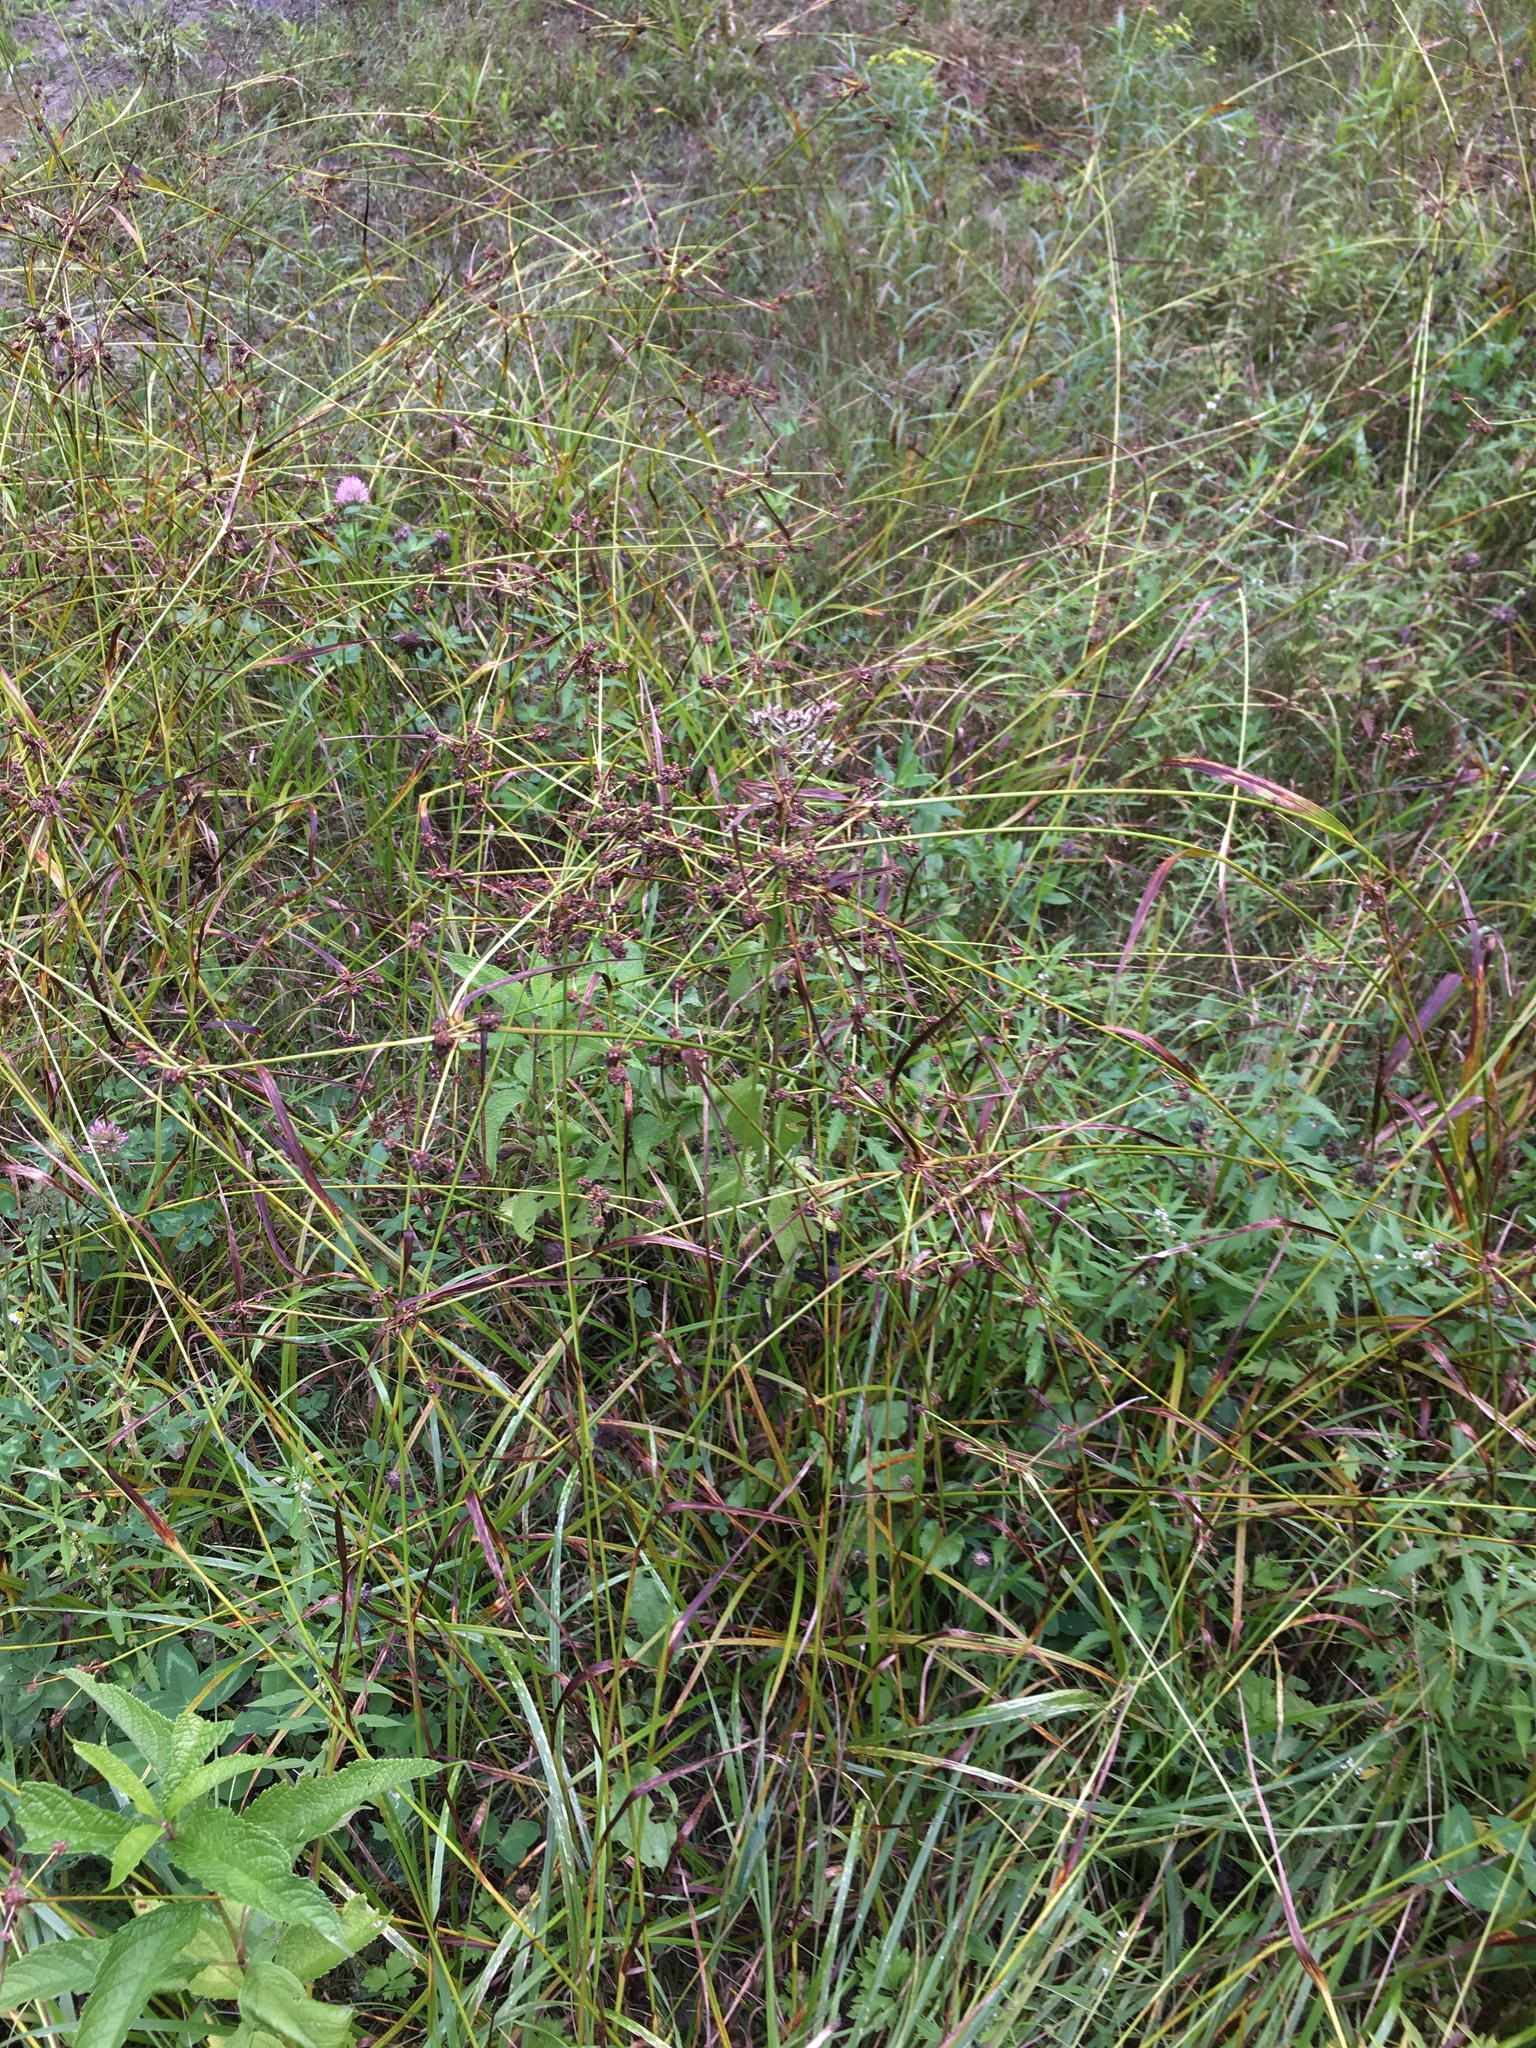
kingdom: Plantae
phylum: Tracheophyta
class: Liliopsida
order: Poales
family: Cyperaceae
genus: Scirpus
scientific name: Scirpus hattorianus
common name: Early dark-green bulrush
